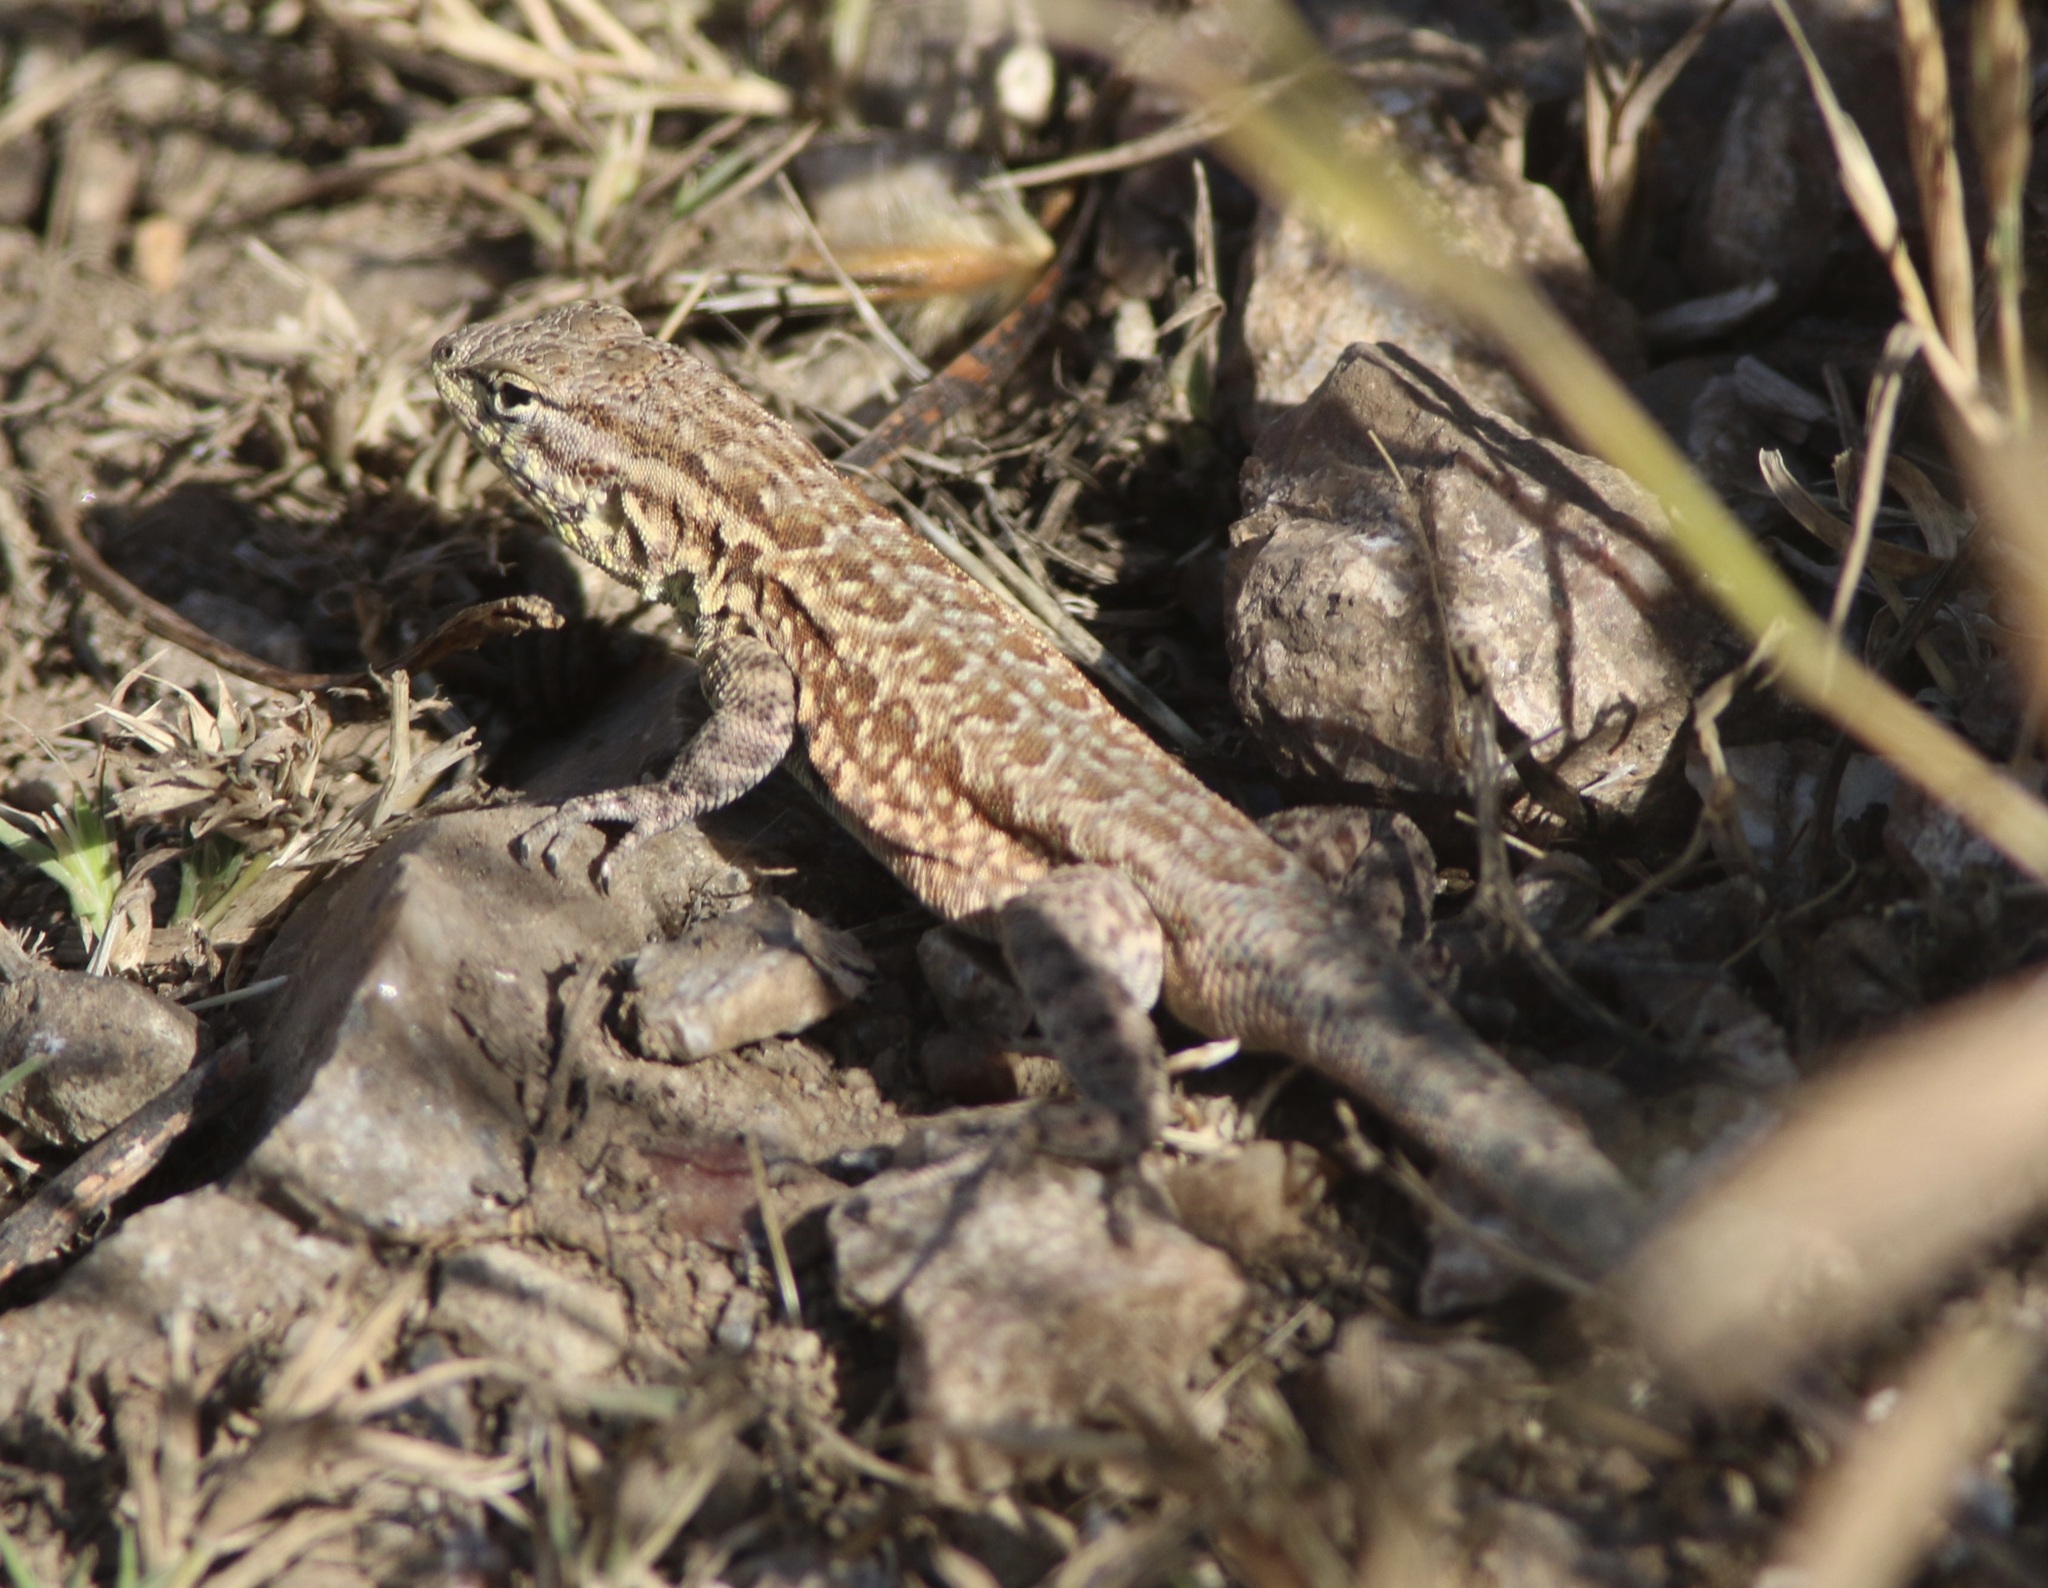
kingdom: Animalia
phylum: Chordata
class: Squamata
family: Phrynosomatidae
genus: Uta
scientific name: Uta stansburiana
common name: Side-blotched lizard
